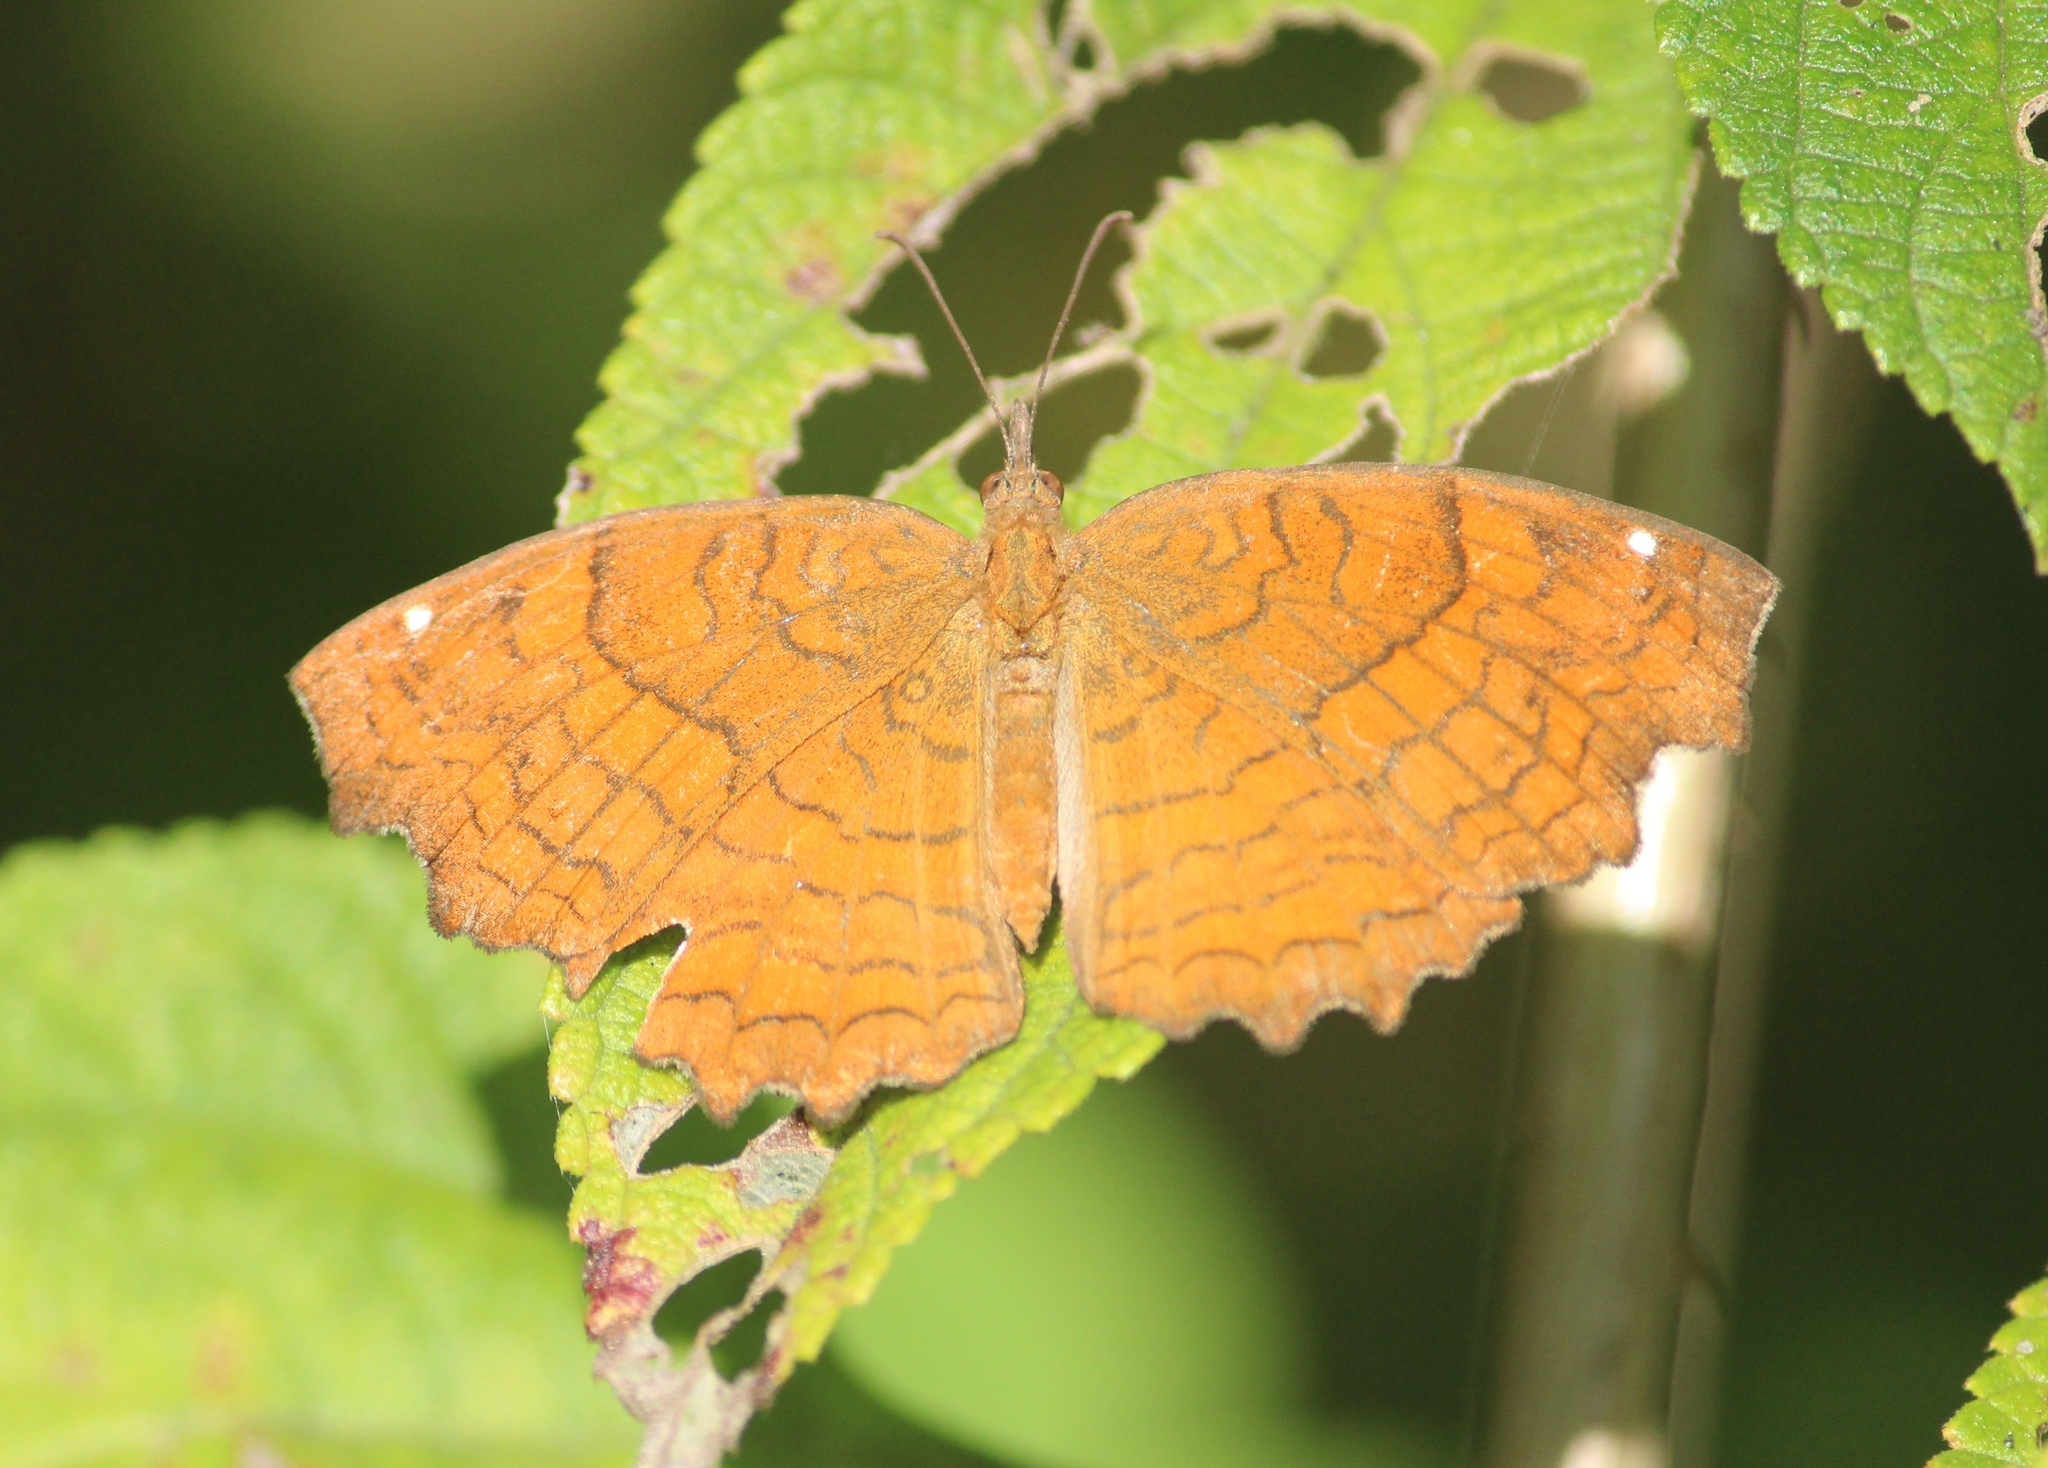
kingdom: Animalia
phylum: Arthropoda
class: Insecta
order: Lepidoptera
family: Nymphalidae
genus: Ariadne
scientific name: Ariadne ariadne
